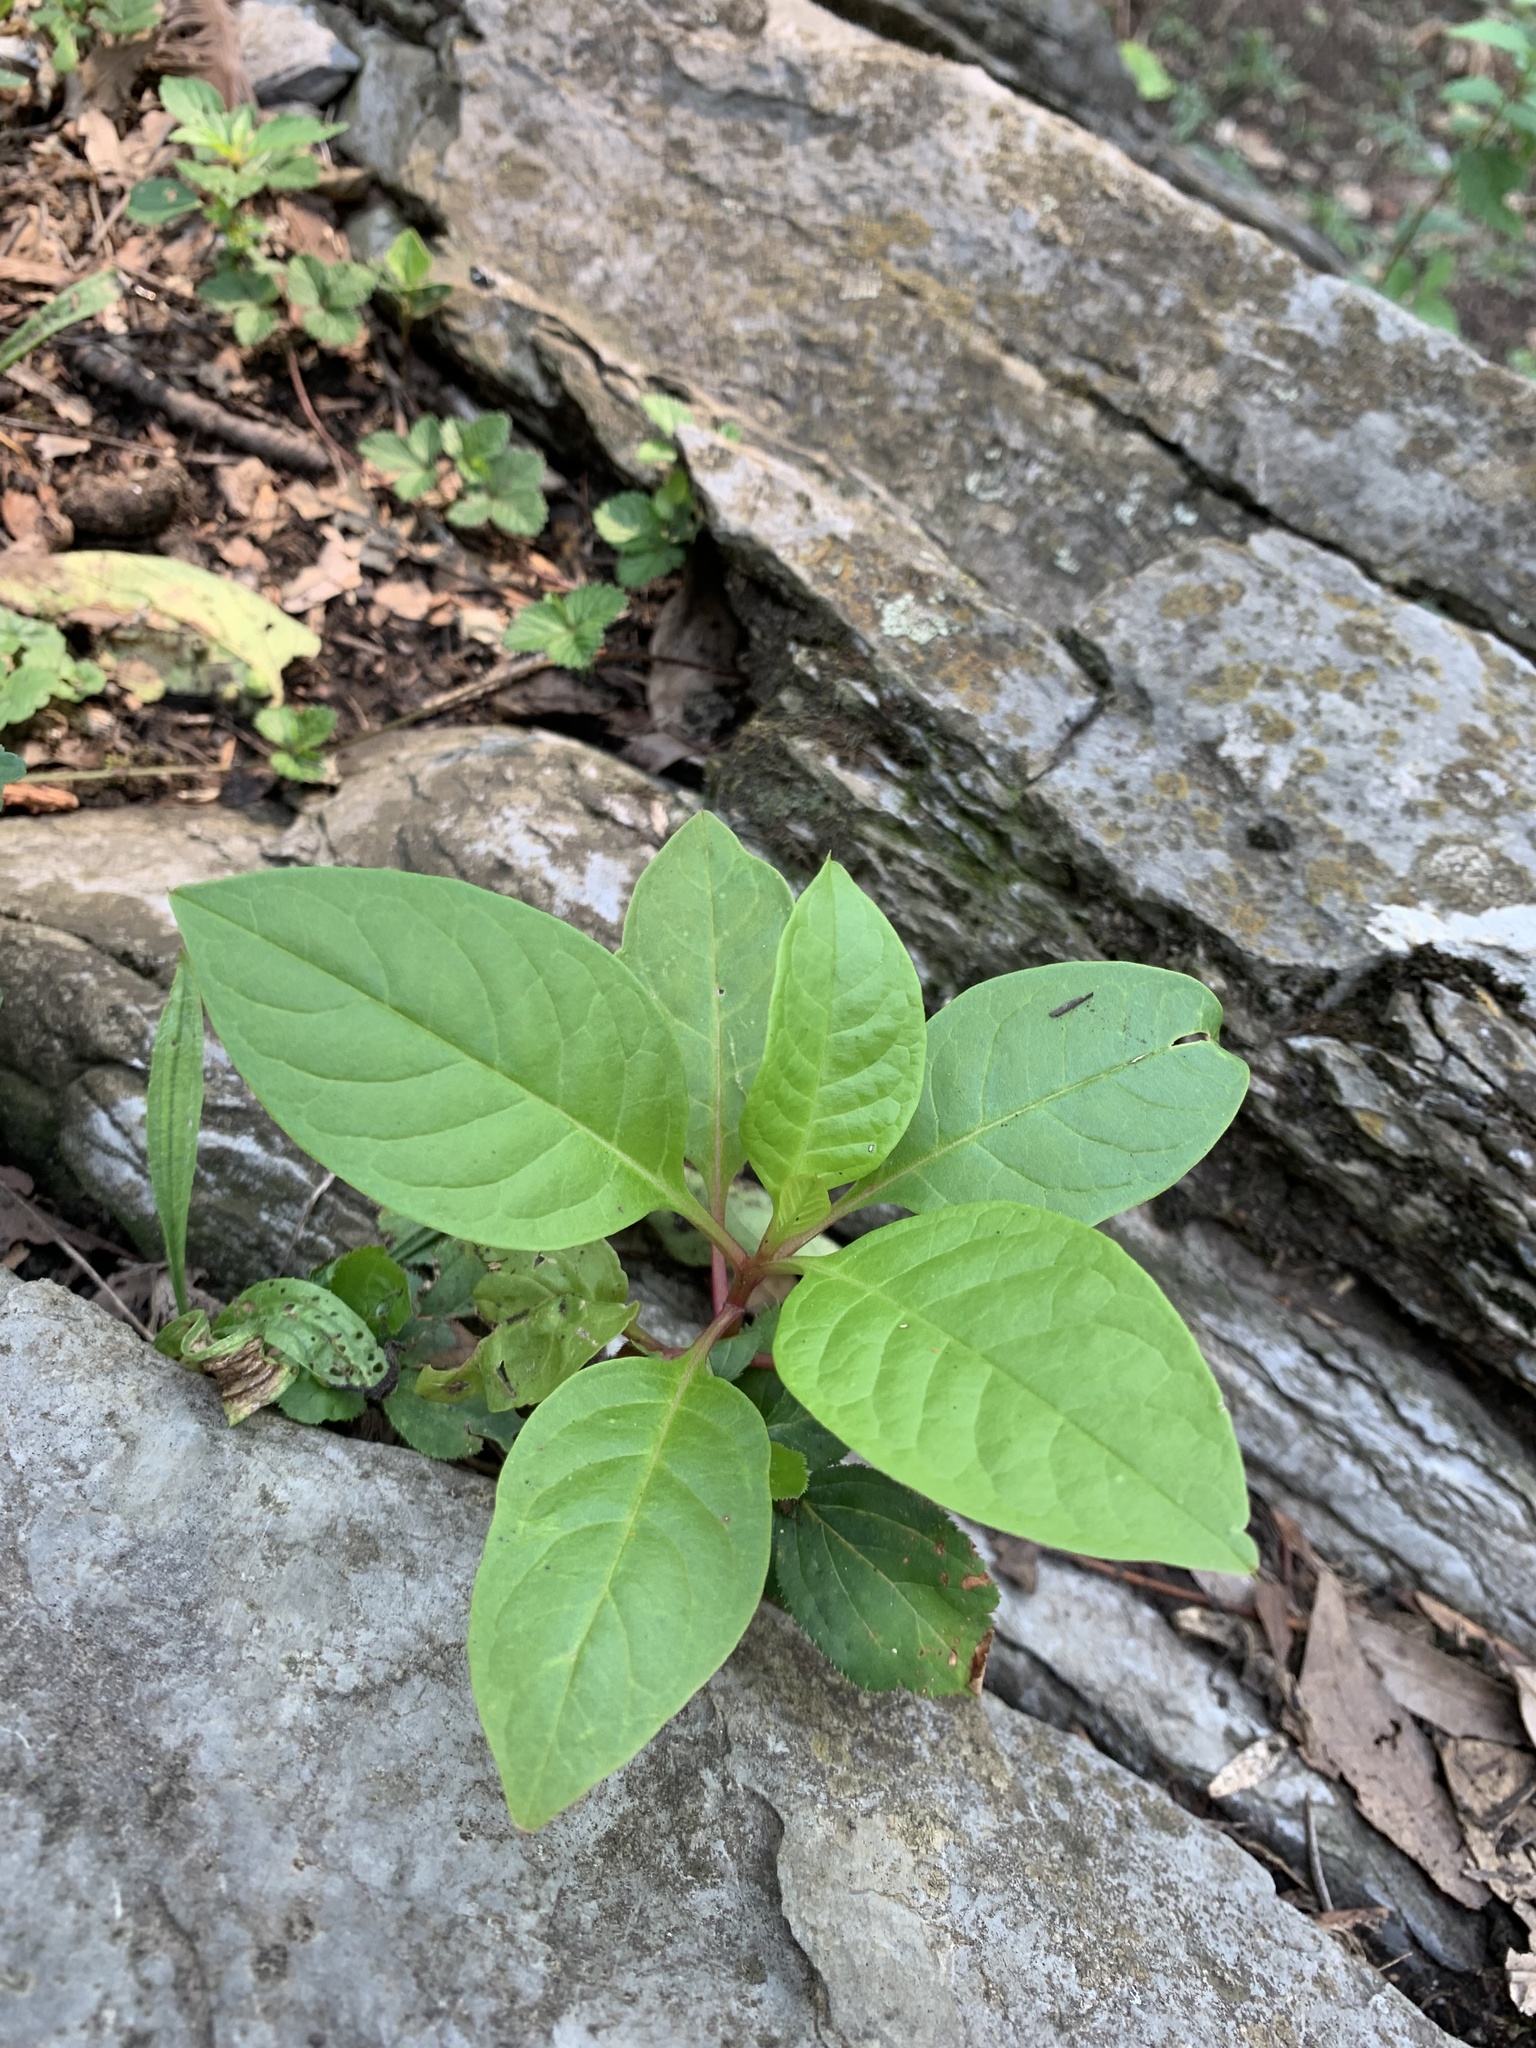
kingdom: Plantae
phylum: Tracheophyta
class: Magnoliopsida
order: Caryophyllales
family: Phytolaccaceae
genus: Phytolacca
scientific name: Phytolacca americana
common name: American pokeweed
